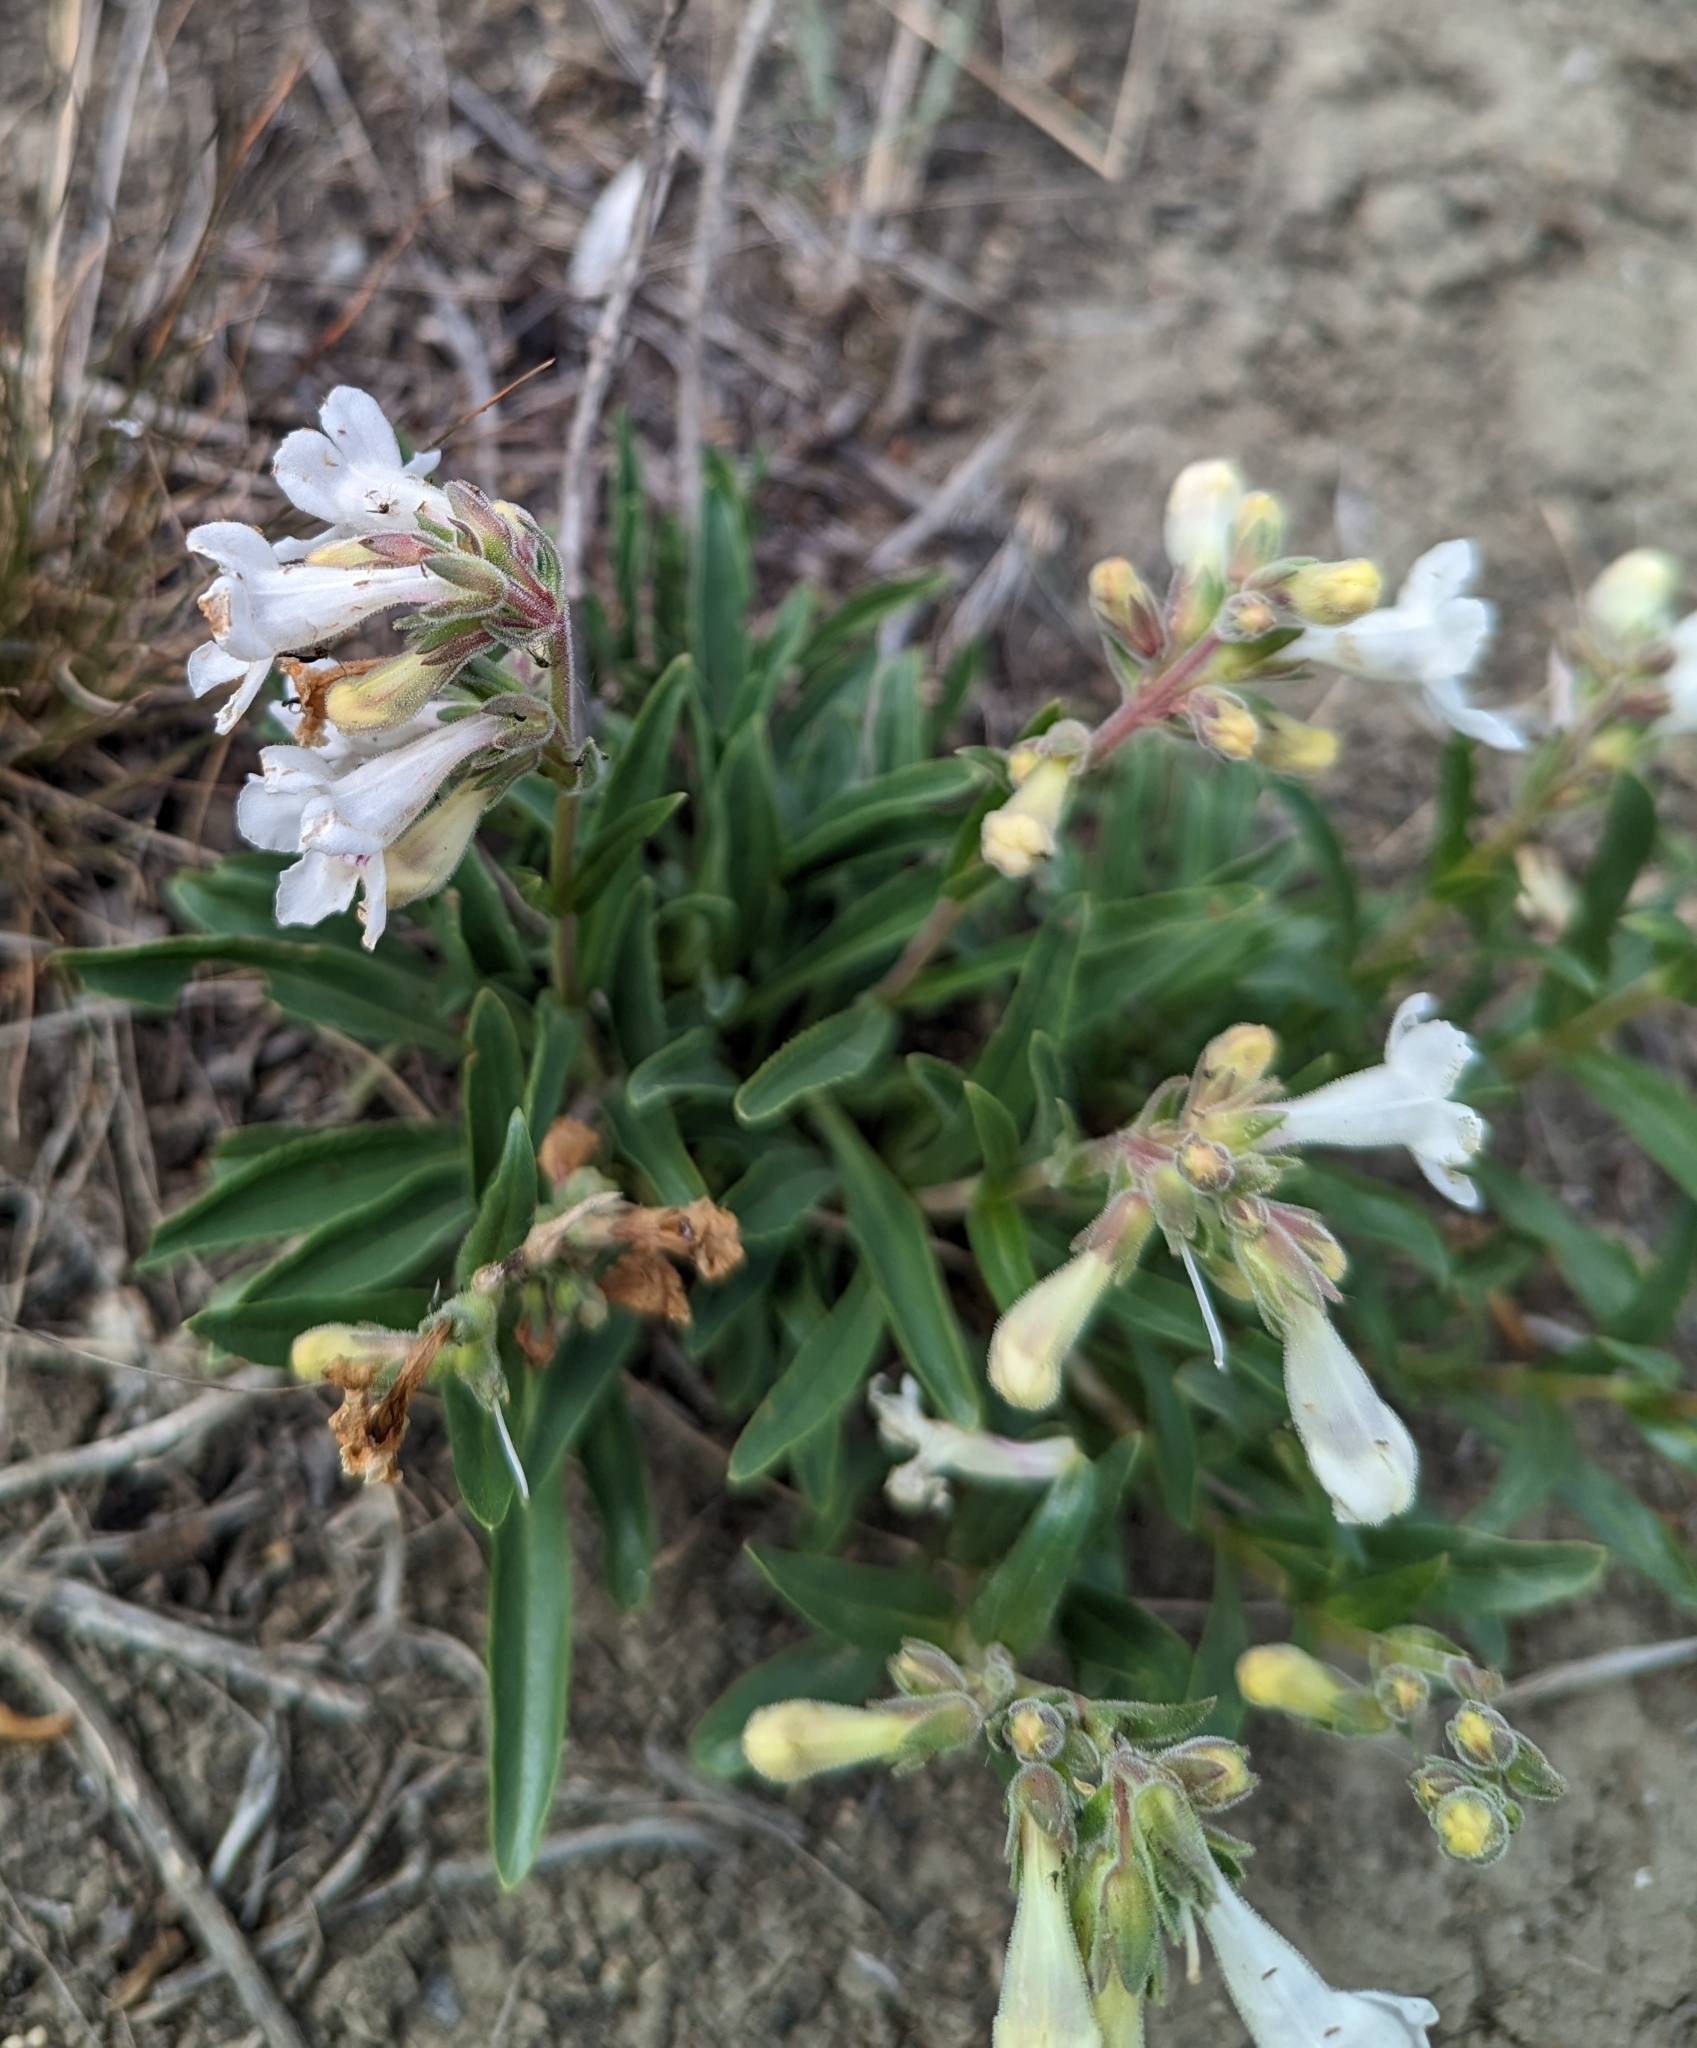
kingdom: Plantae
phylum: Tracheophyta
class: Magnoliopsida
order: Lamiales
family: Plantaginaceae
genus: Penstemon
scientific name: Penstemon albidus
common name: White beardtongue
